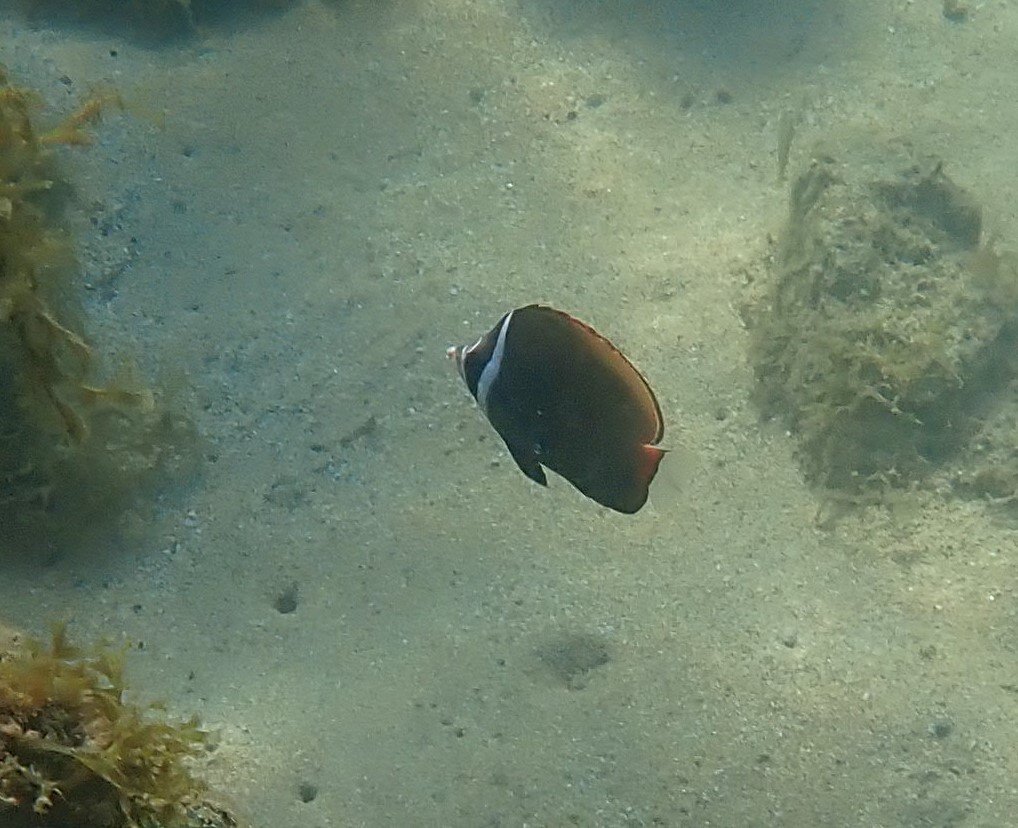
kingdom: Animalia
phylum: Chordata
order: Perciformes
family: Chaetodontidae
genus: Chaetodon
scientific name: Chaetodon collare
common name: Redtail butterflyfish
